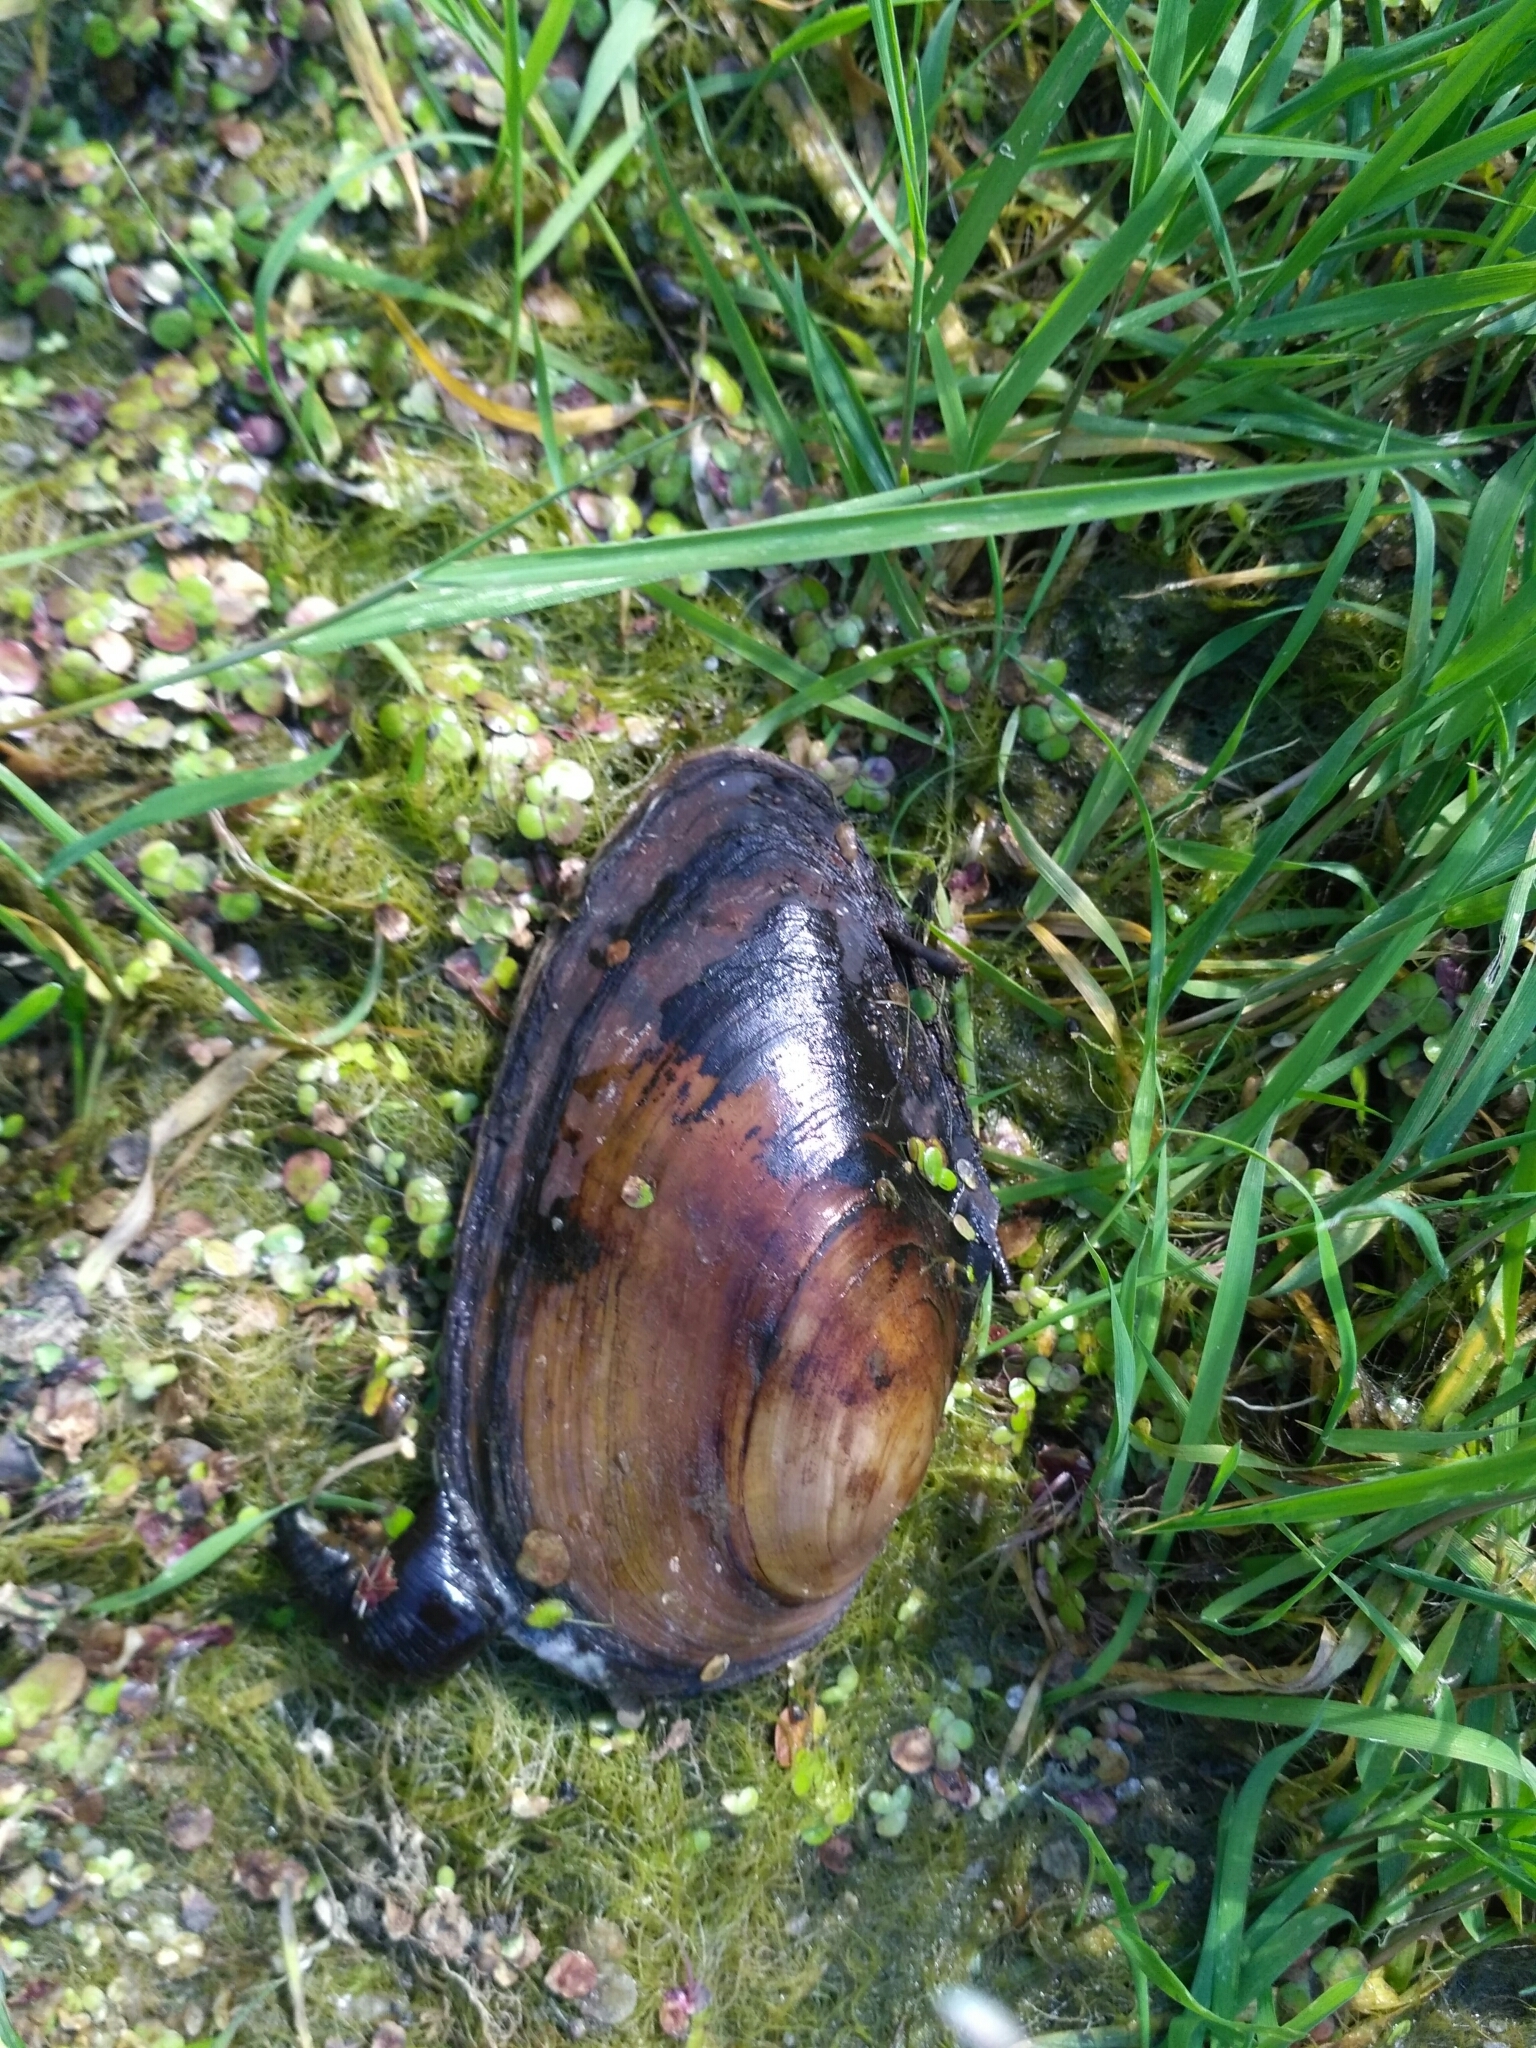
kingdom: Animalia
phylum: Mollusca
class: Bivalvia
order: Unionida
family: Unionidae
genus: Anodonta
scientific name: Anodonta anatina
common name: Duck mussel
